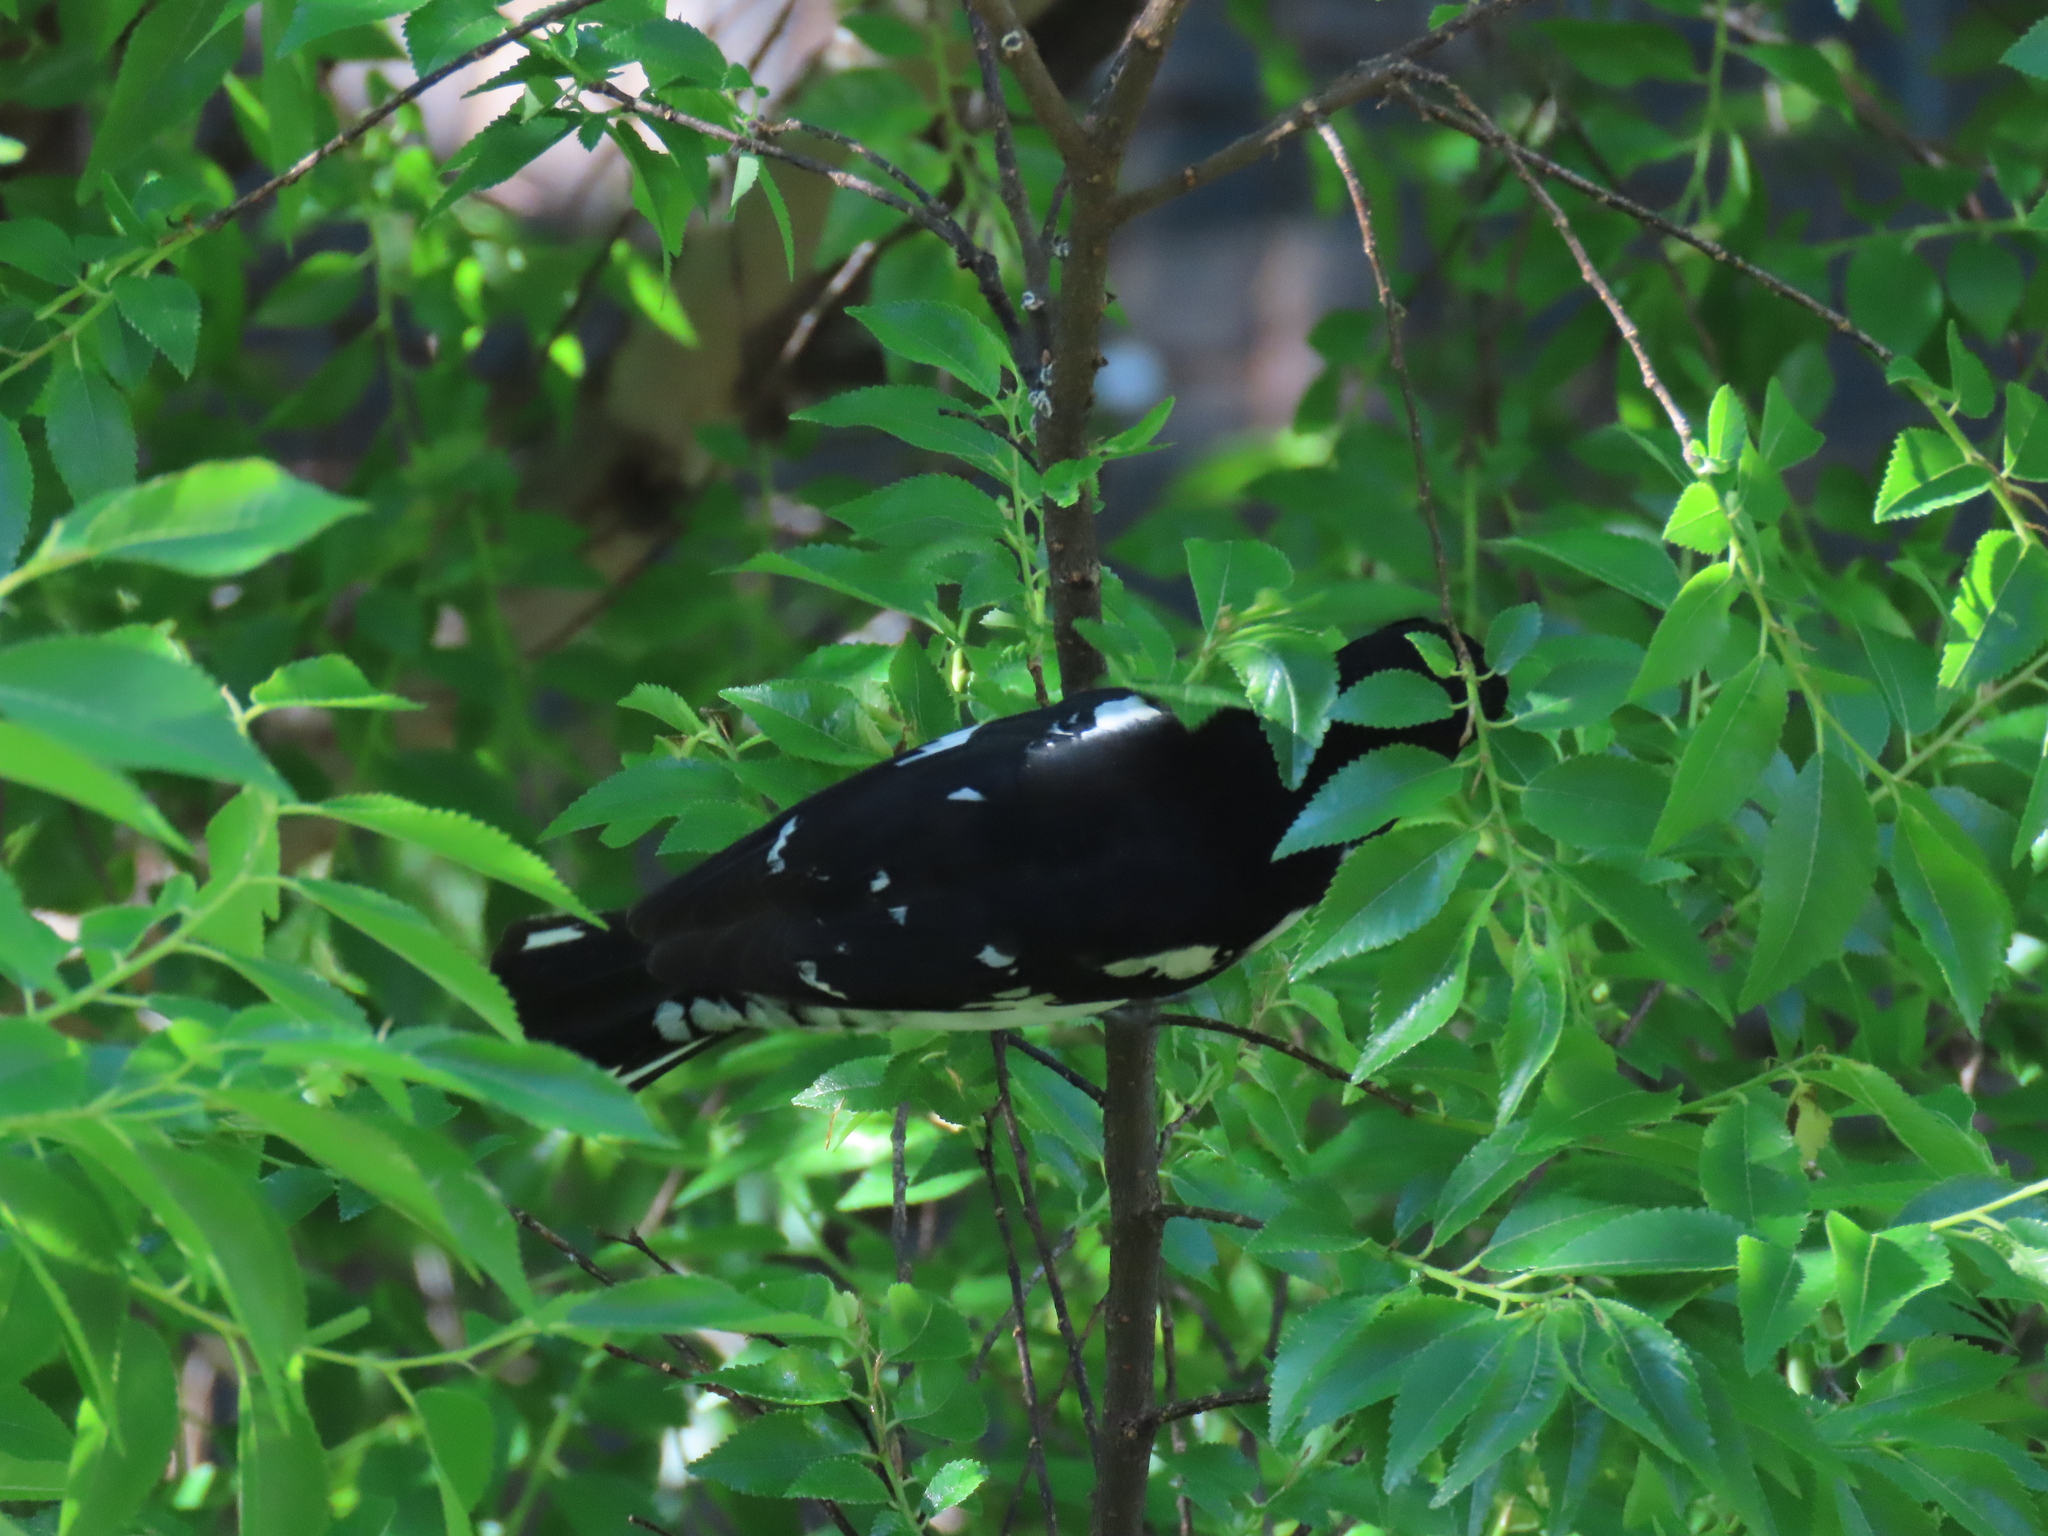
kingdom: Animalia
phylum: Chordata
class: Aves
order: Passeriformes
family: Cardinalidae
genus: Pheucticus
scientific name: Pheucticus ludovicianus
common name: Rose-breasted grosbeak
